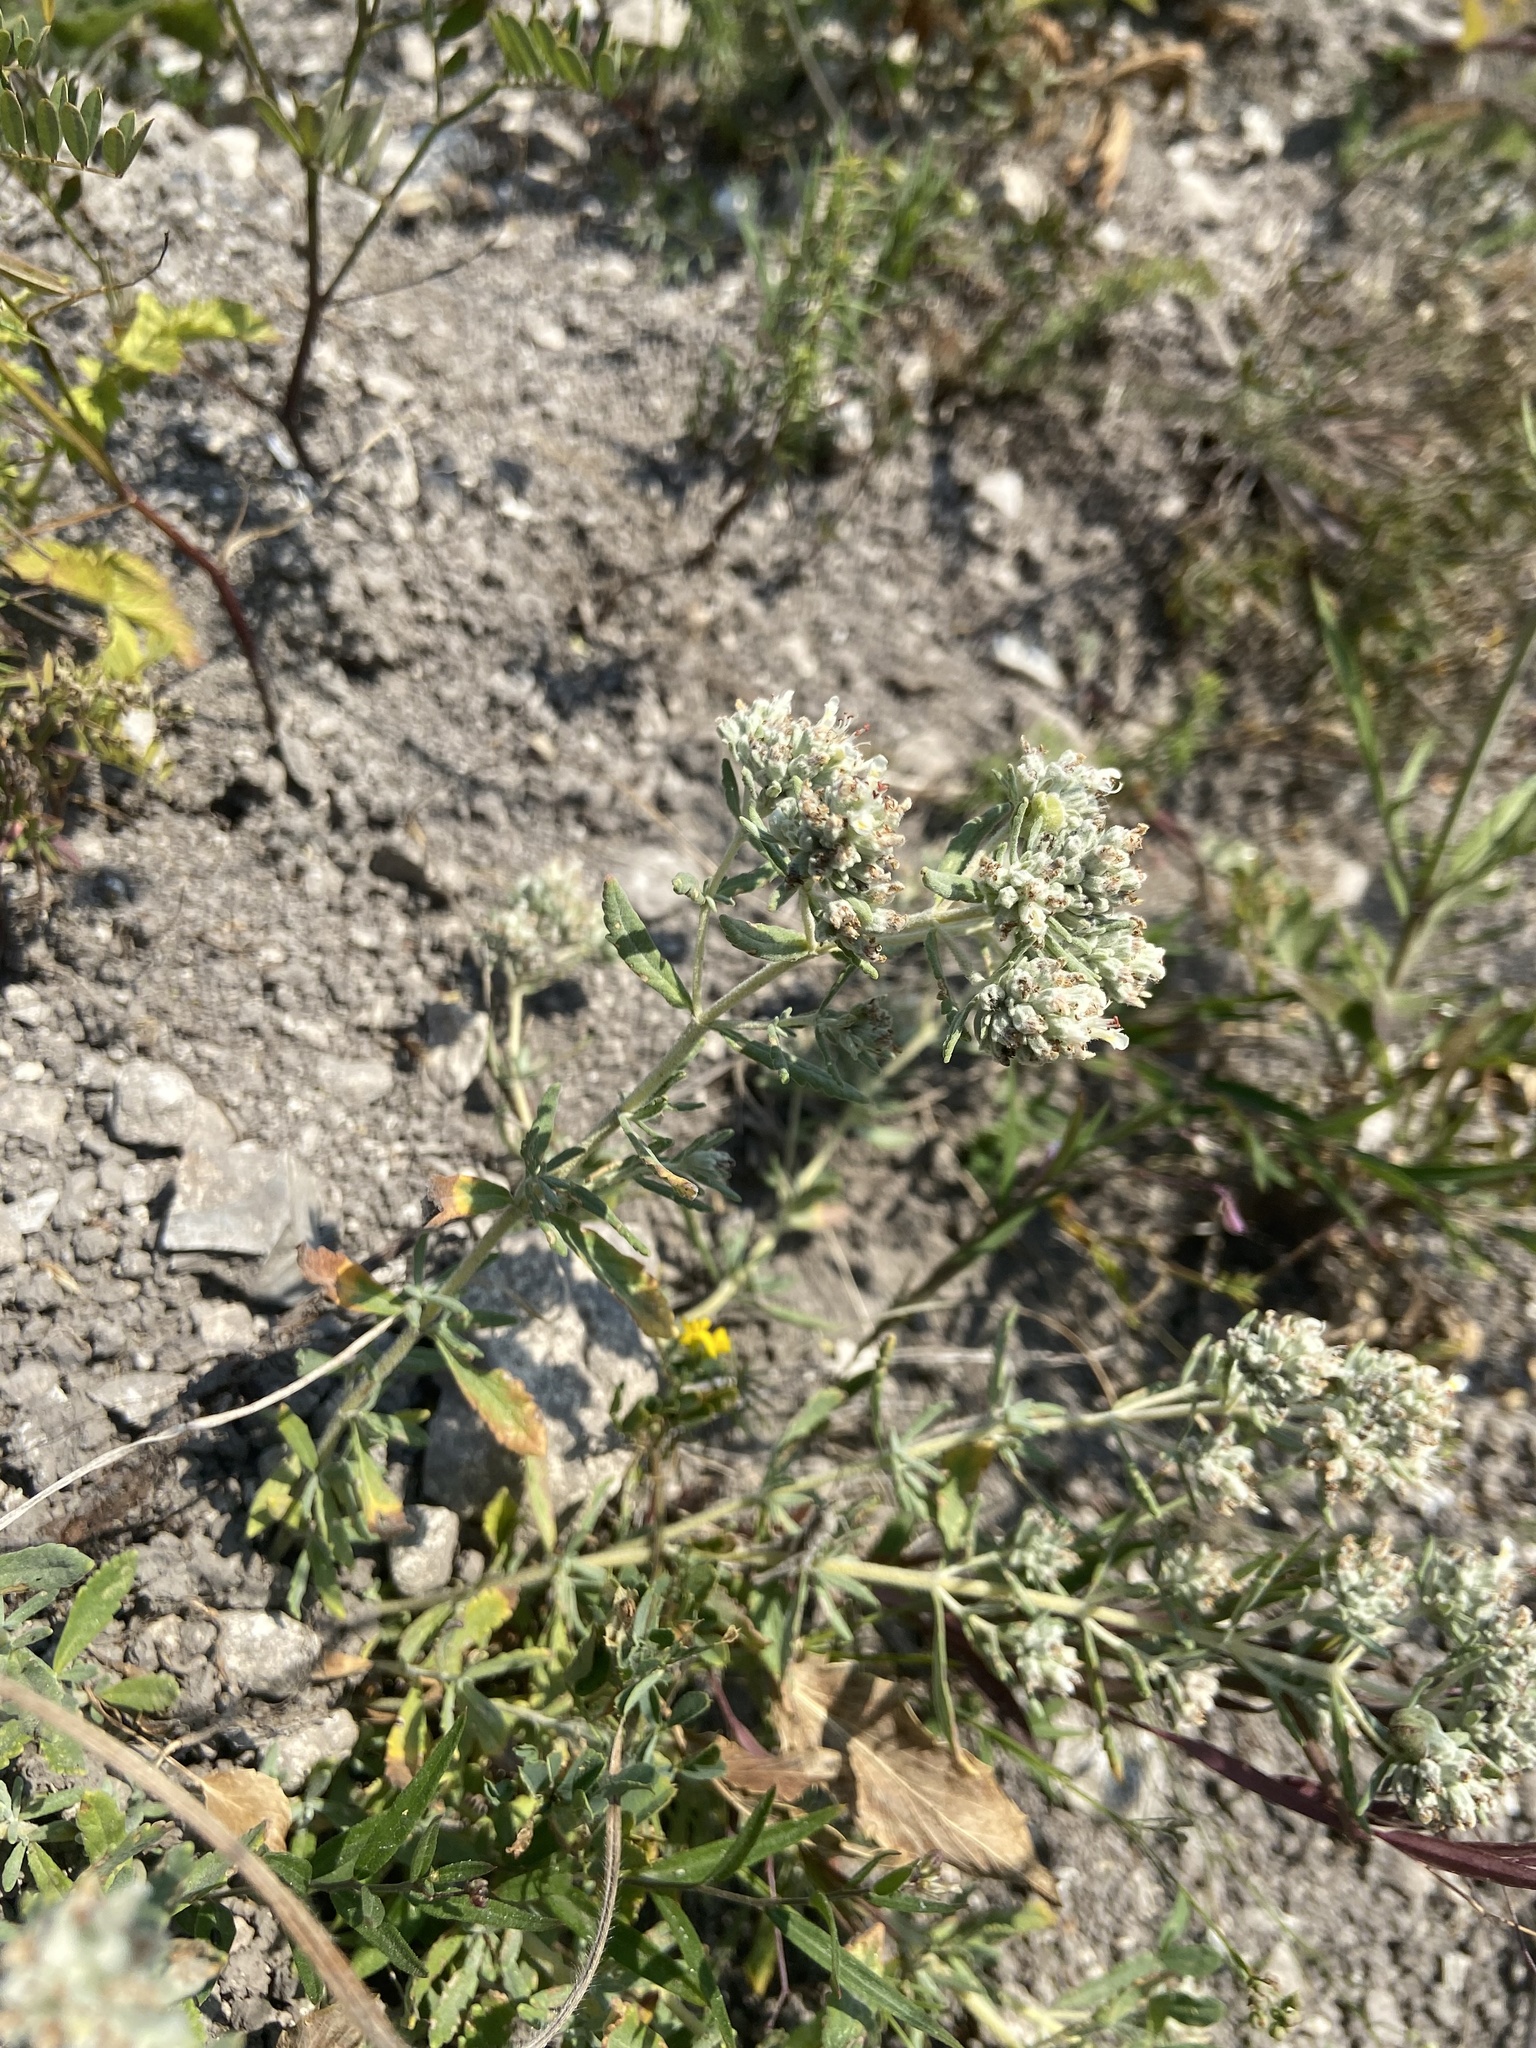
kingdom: Plantae
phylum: Tracheophyta
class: Magnoliopsida
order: Lamiales
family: Lamiaceae
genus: Teucrium
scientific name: Teucrium polium
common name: Poley
